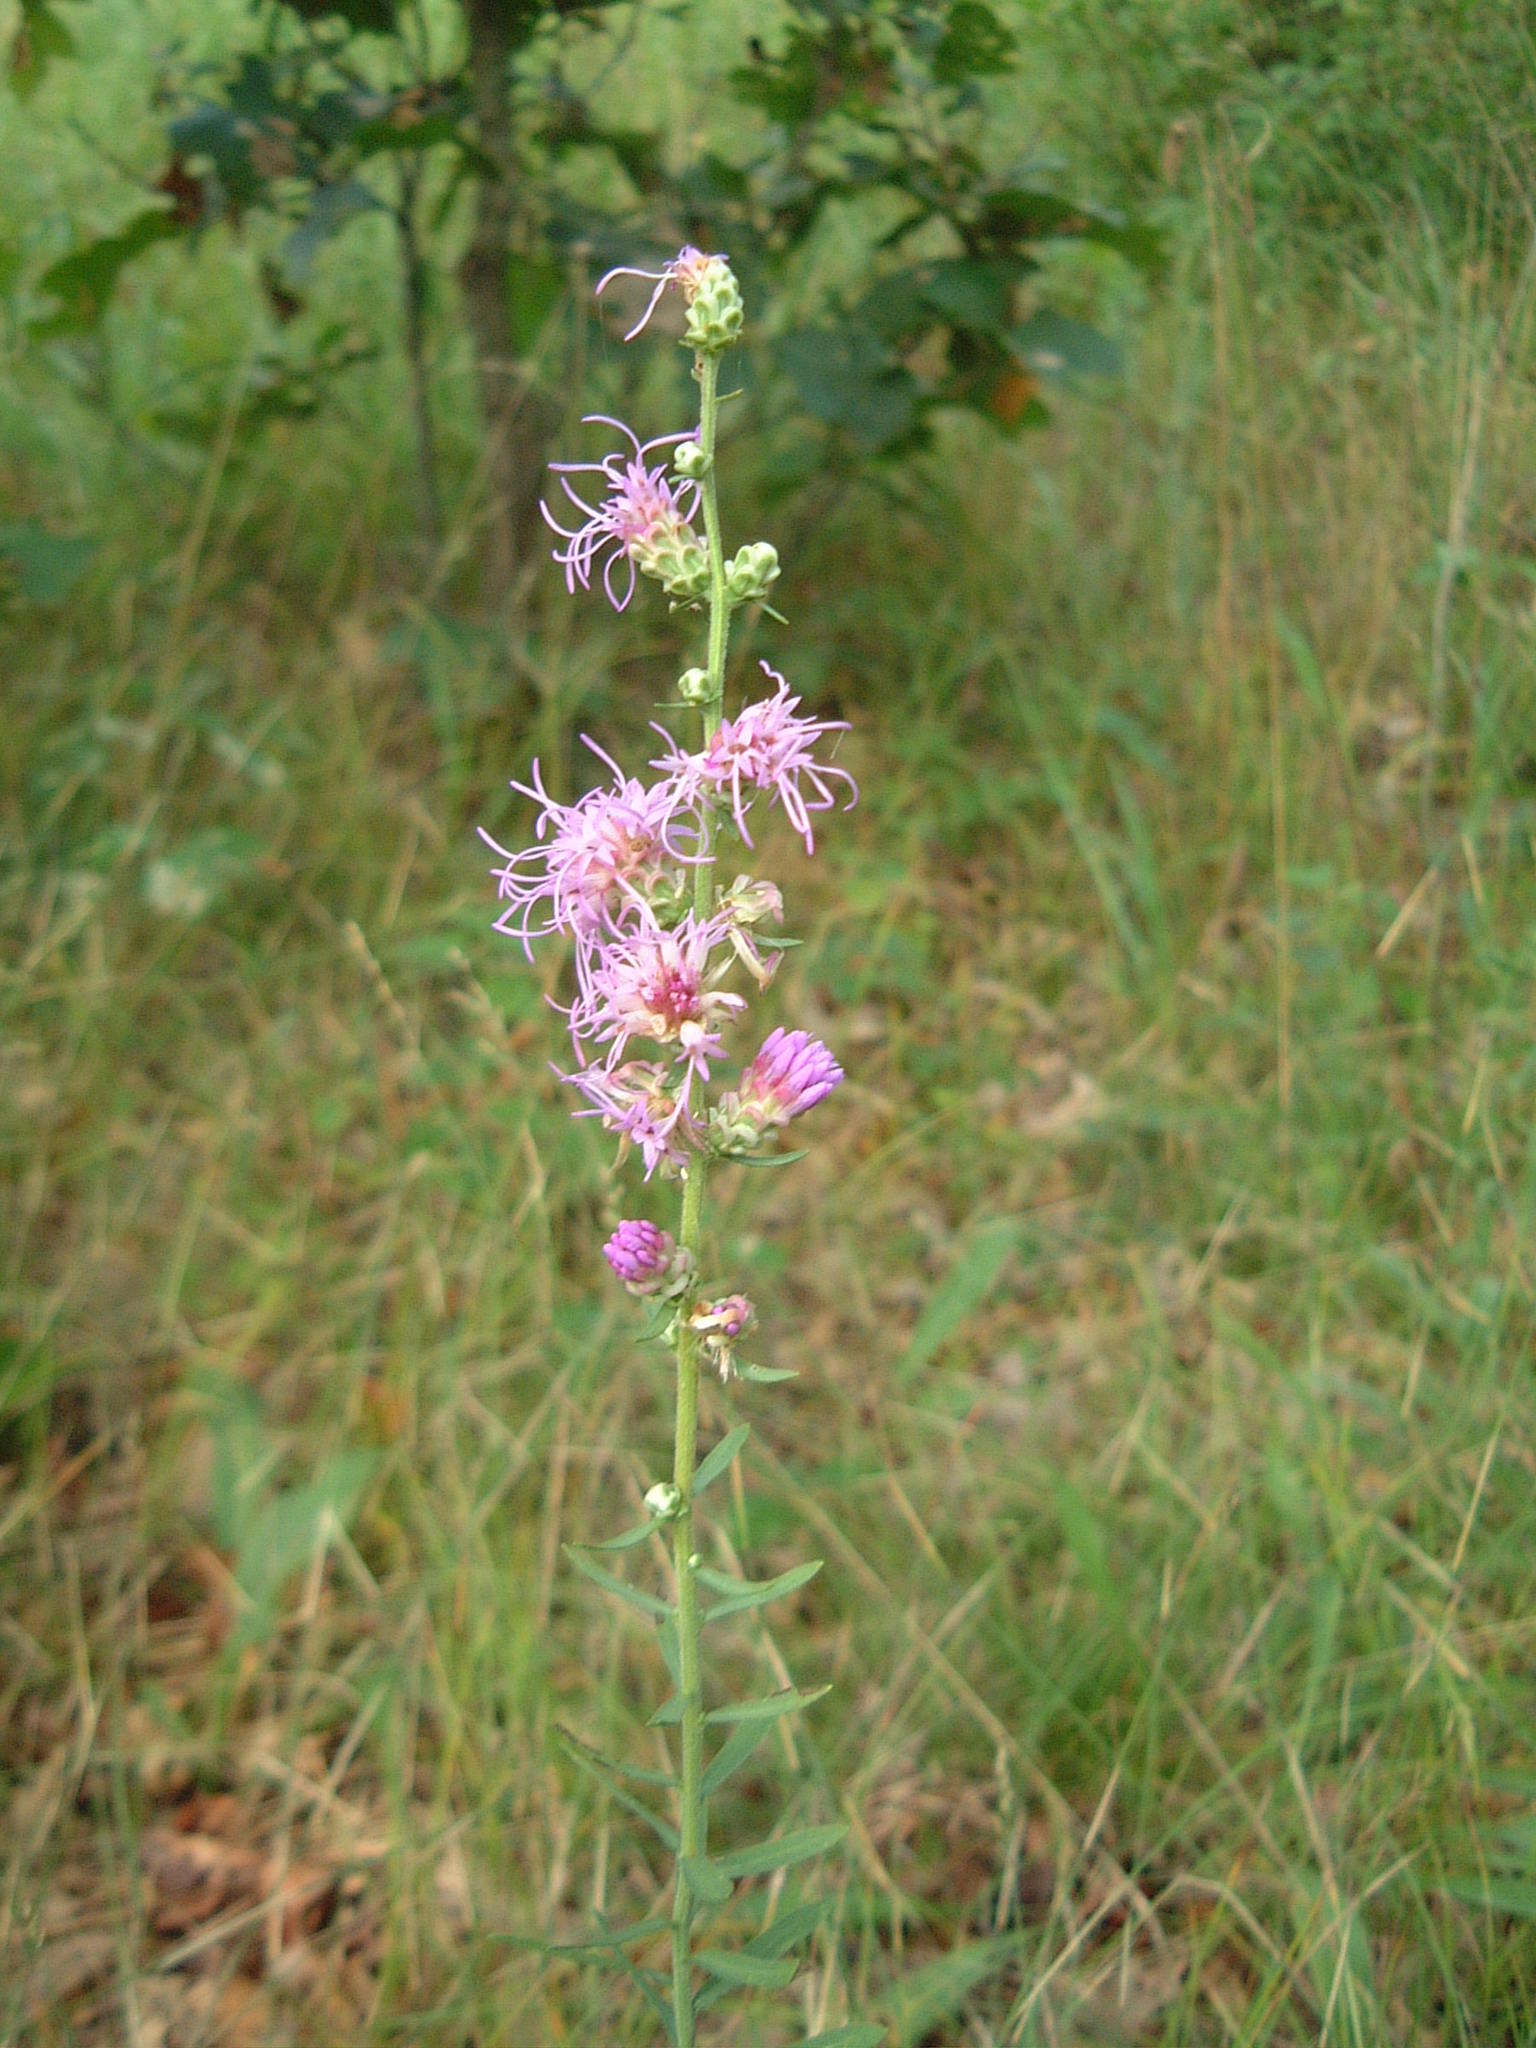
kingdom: Plantae
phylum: Tracheophyta
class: Magnoliopsida
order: Asterales
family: Asteraceae
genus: Liatris
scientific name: Liatris aspera
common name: Lacerate blazing-star
